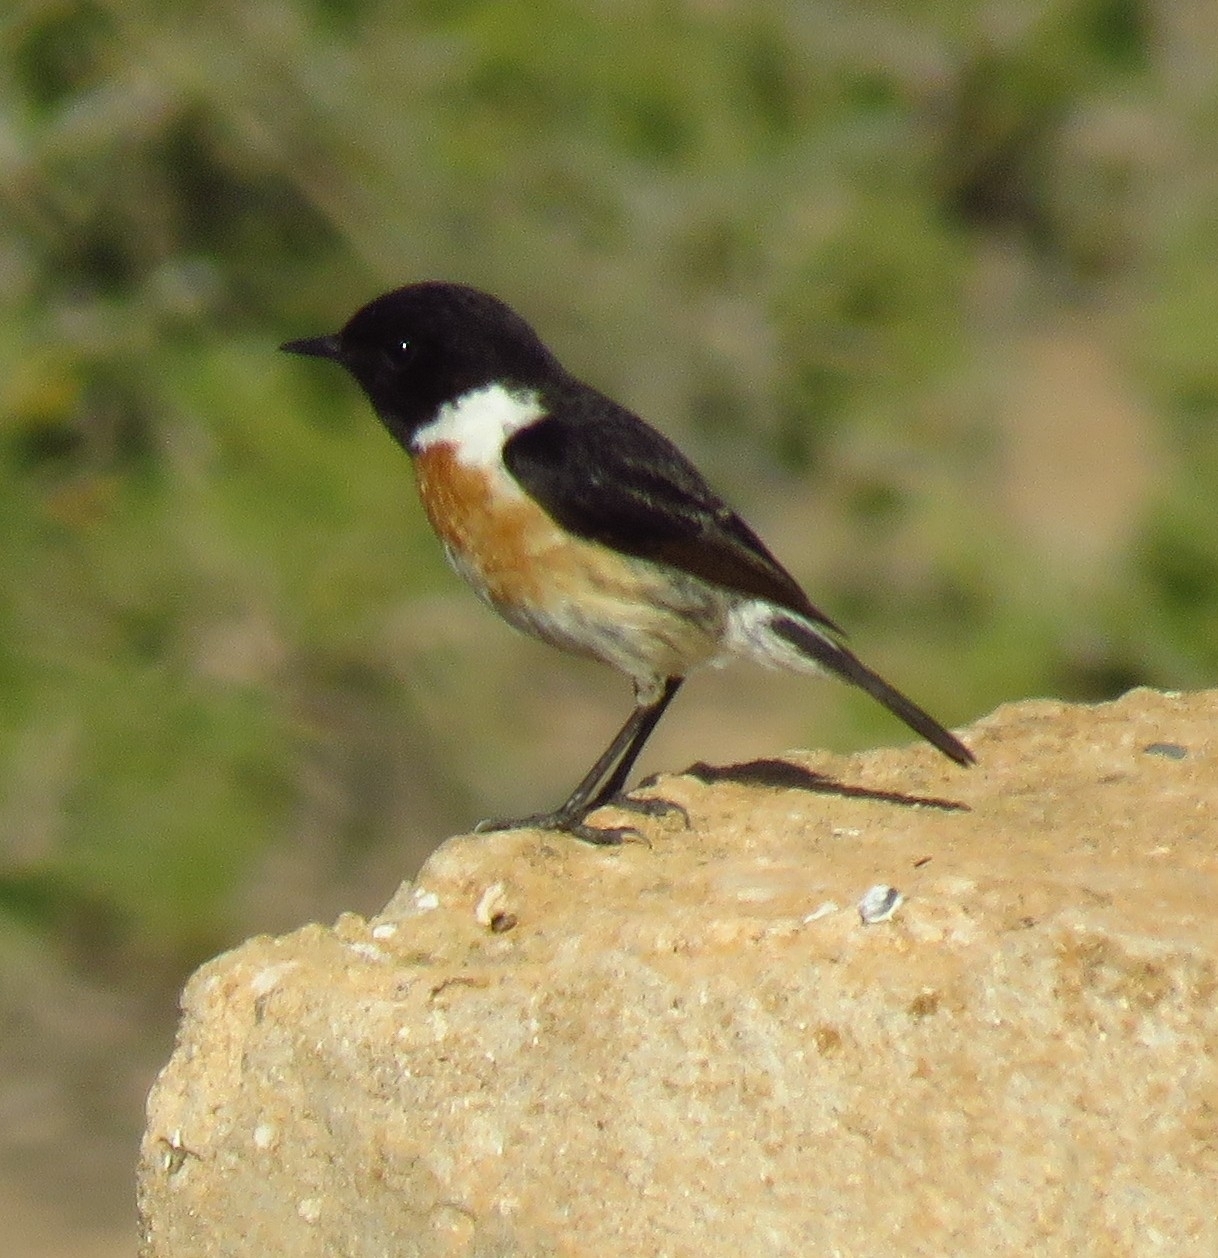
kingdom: Animalia
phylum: Chordata
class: Aves
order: Passeriformes
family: Muscicapidae
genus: Saxicola
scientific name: Saxicola rubicola
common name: European stonechat
